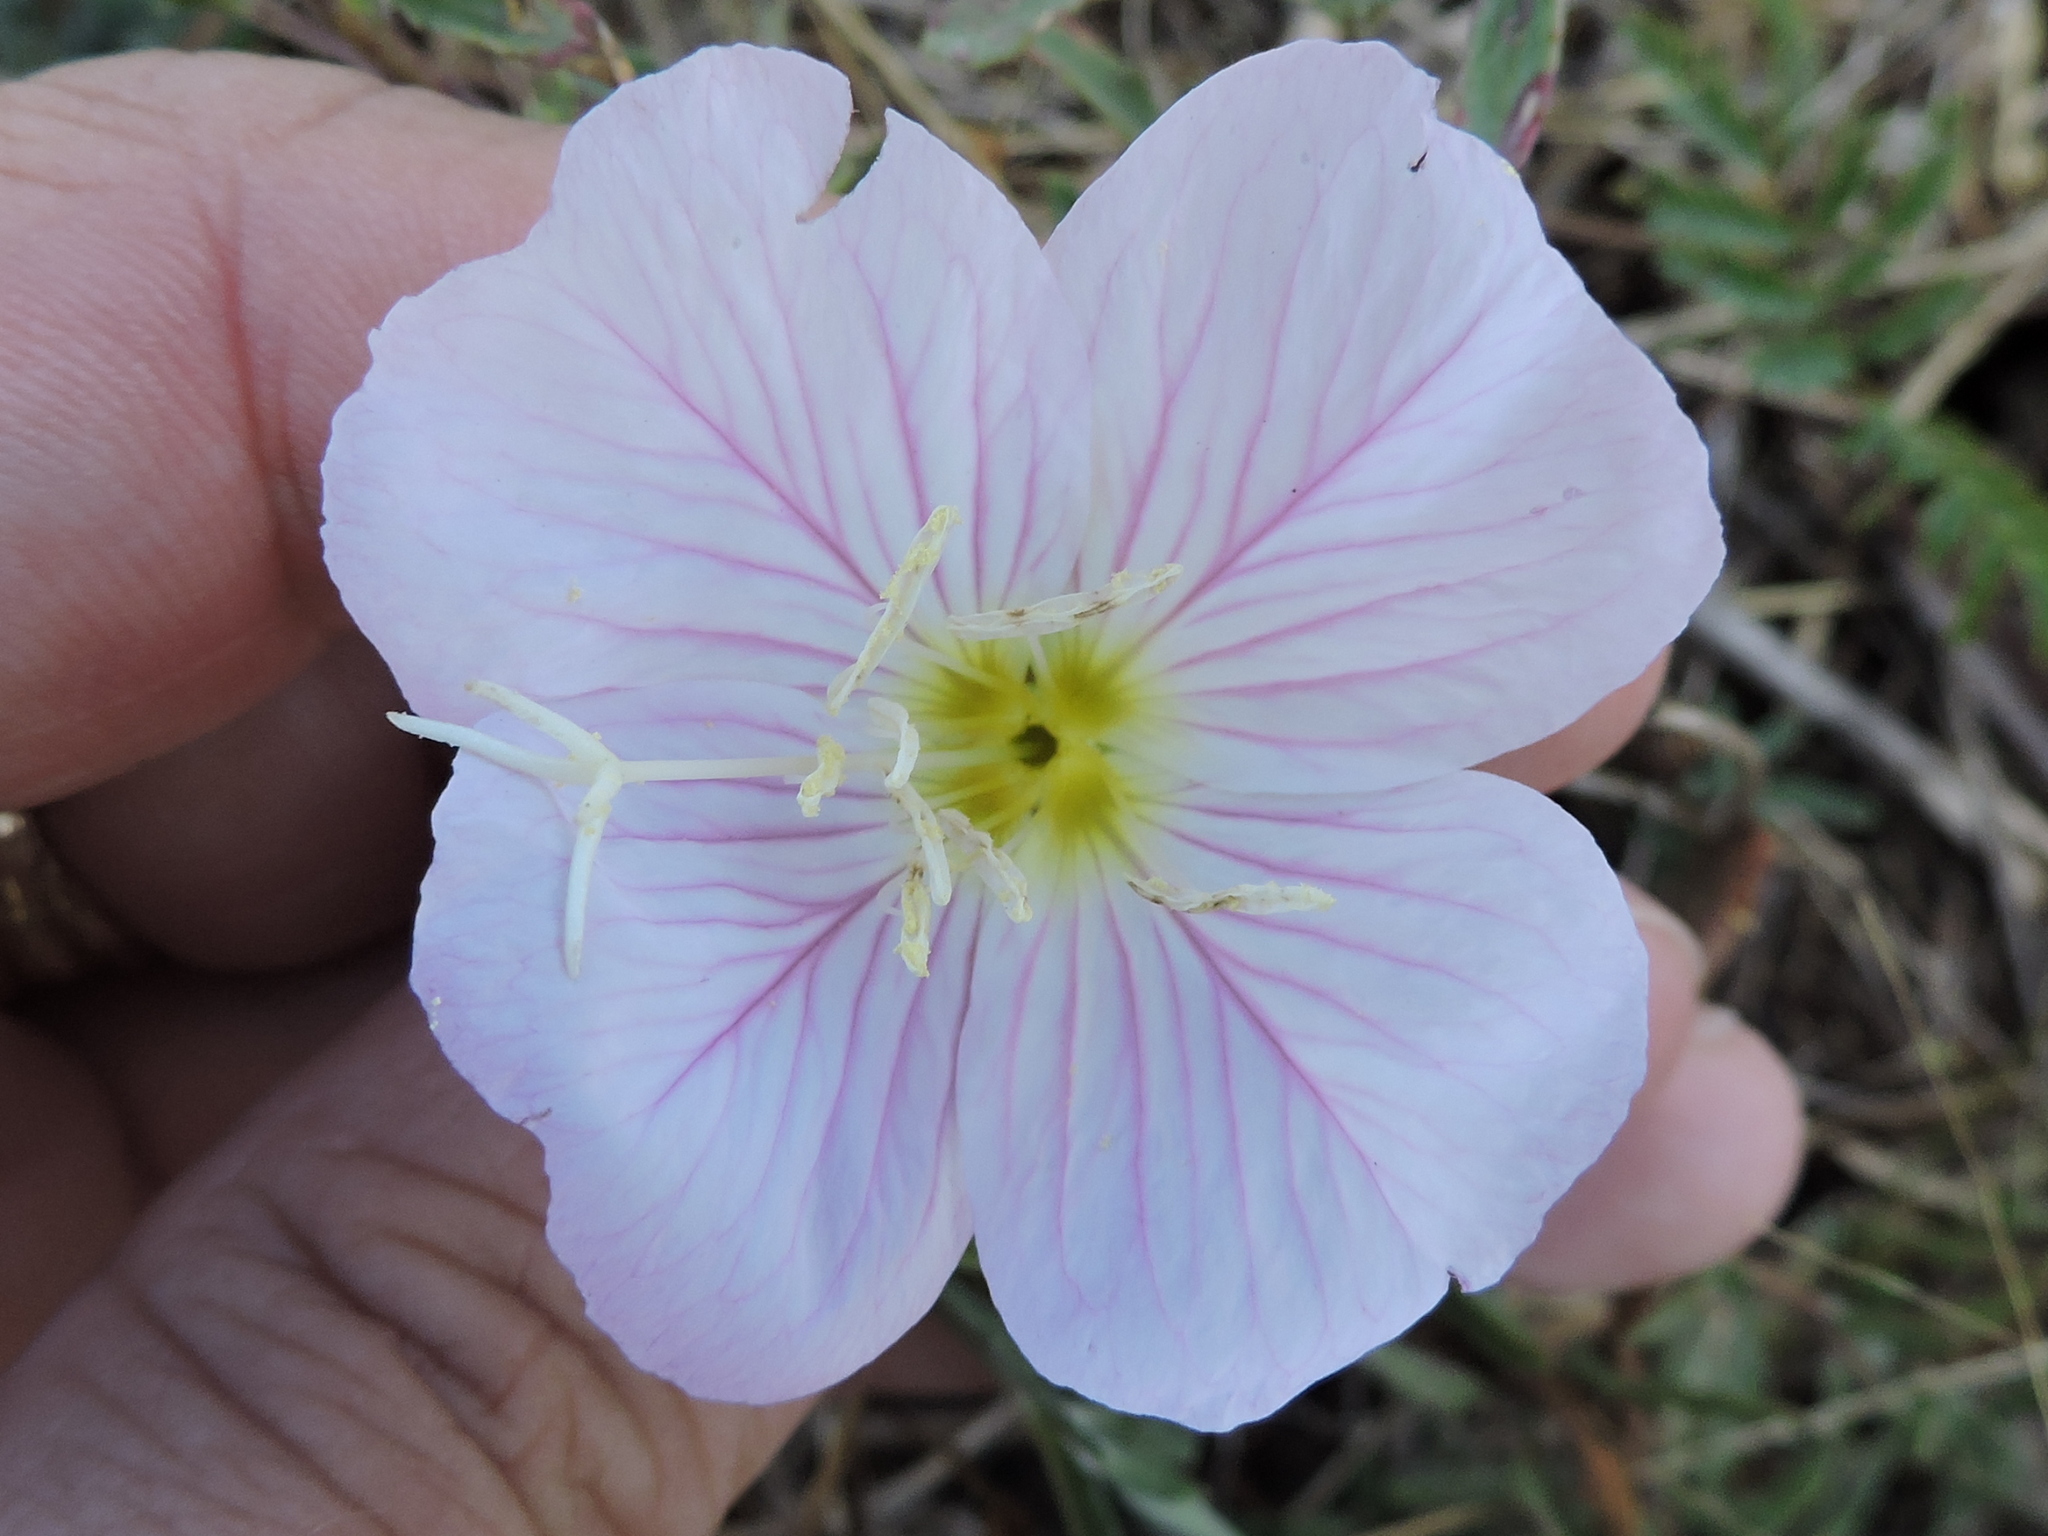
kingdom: Plantae
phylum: Tracheophyta
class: Magnoliopsida
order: Myrtales
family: Onagraceae
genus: Oenothera
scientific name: Oenothera speciosa
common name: White evening-primrose
